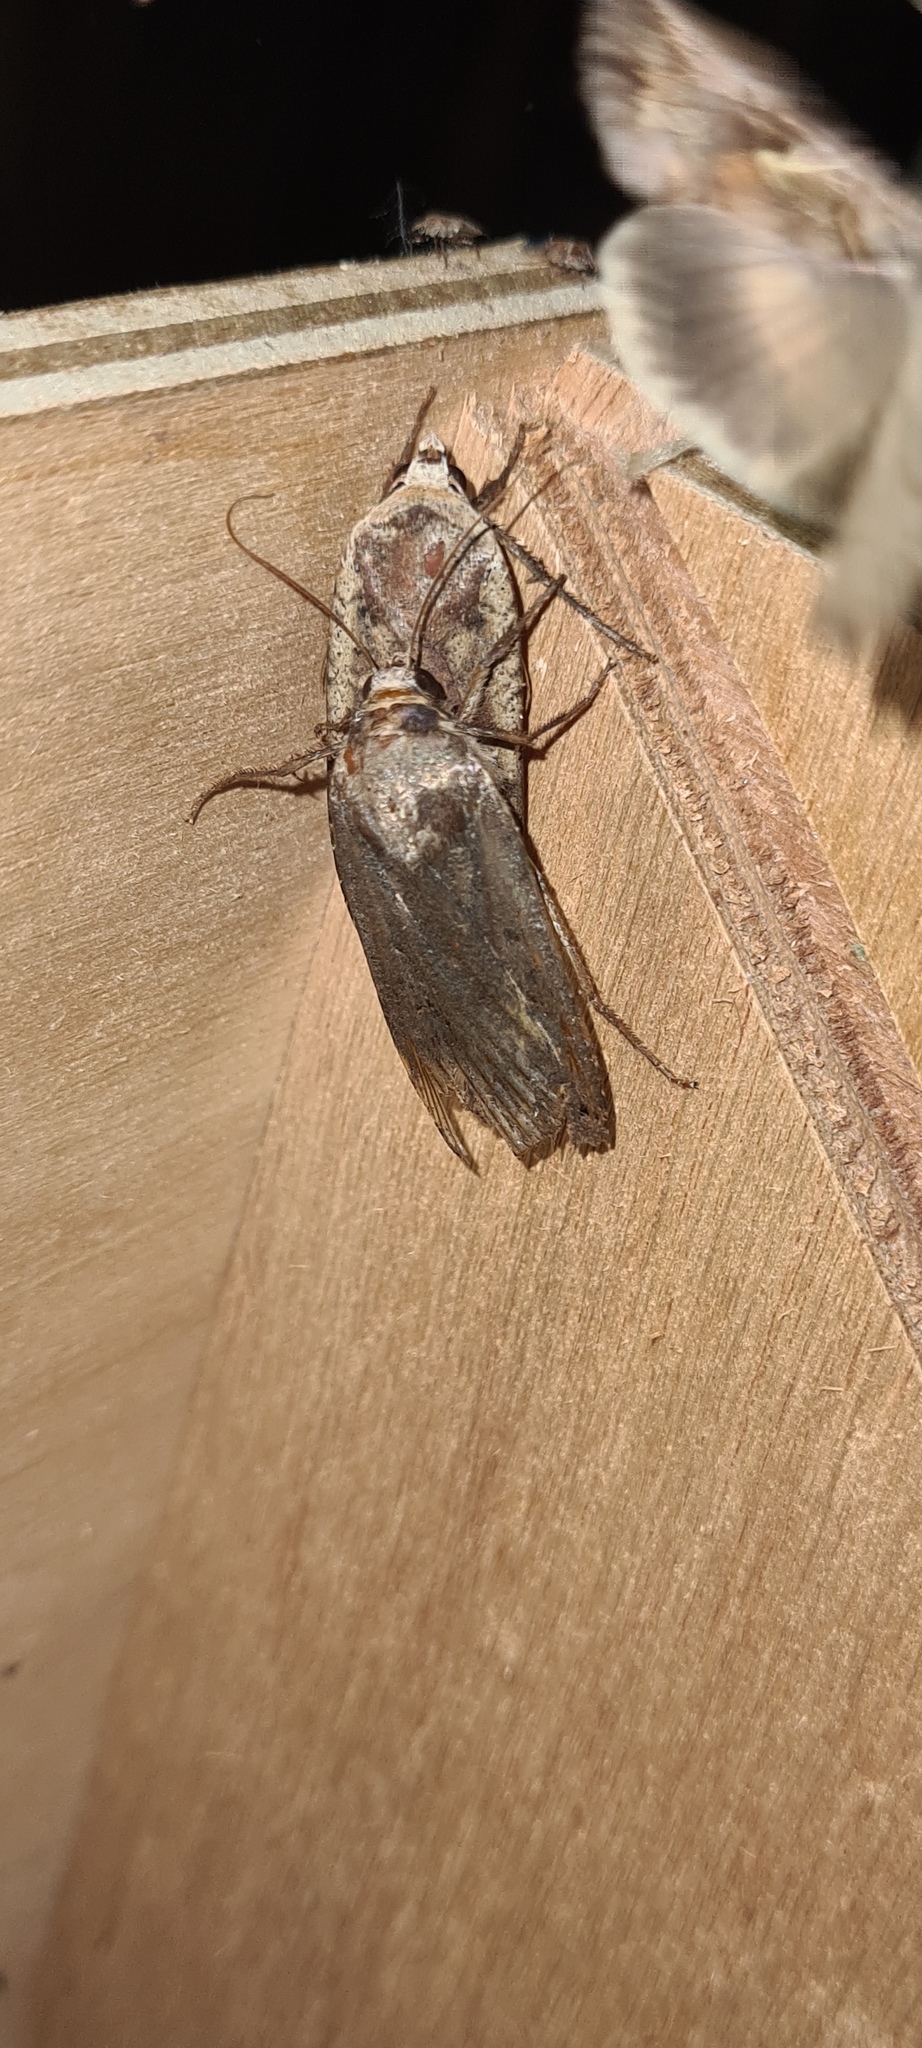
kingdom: Animalia
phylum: Arthropoda
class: Insecta
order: Lepidoptera
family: Noctuidae
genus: Noctua
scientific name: Noctua pronuba
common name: Large yellow underwing
